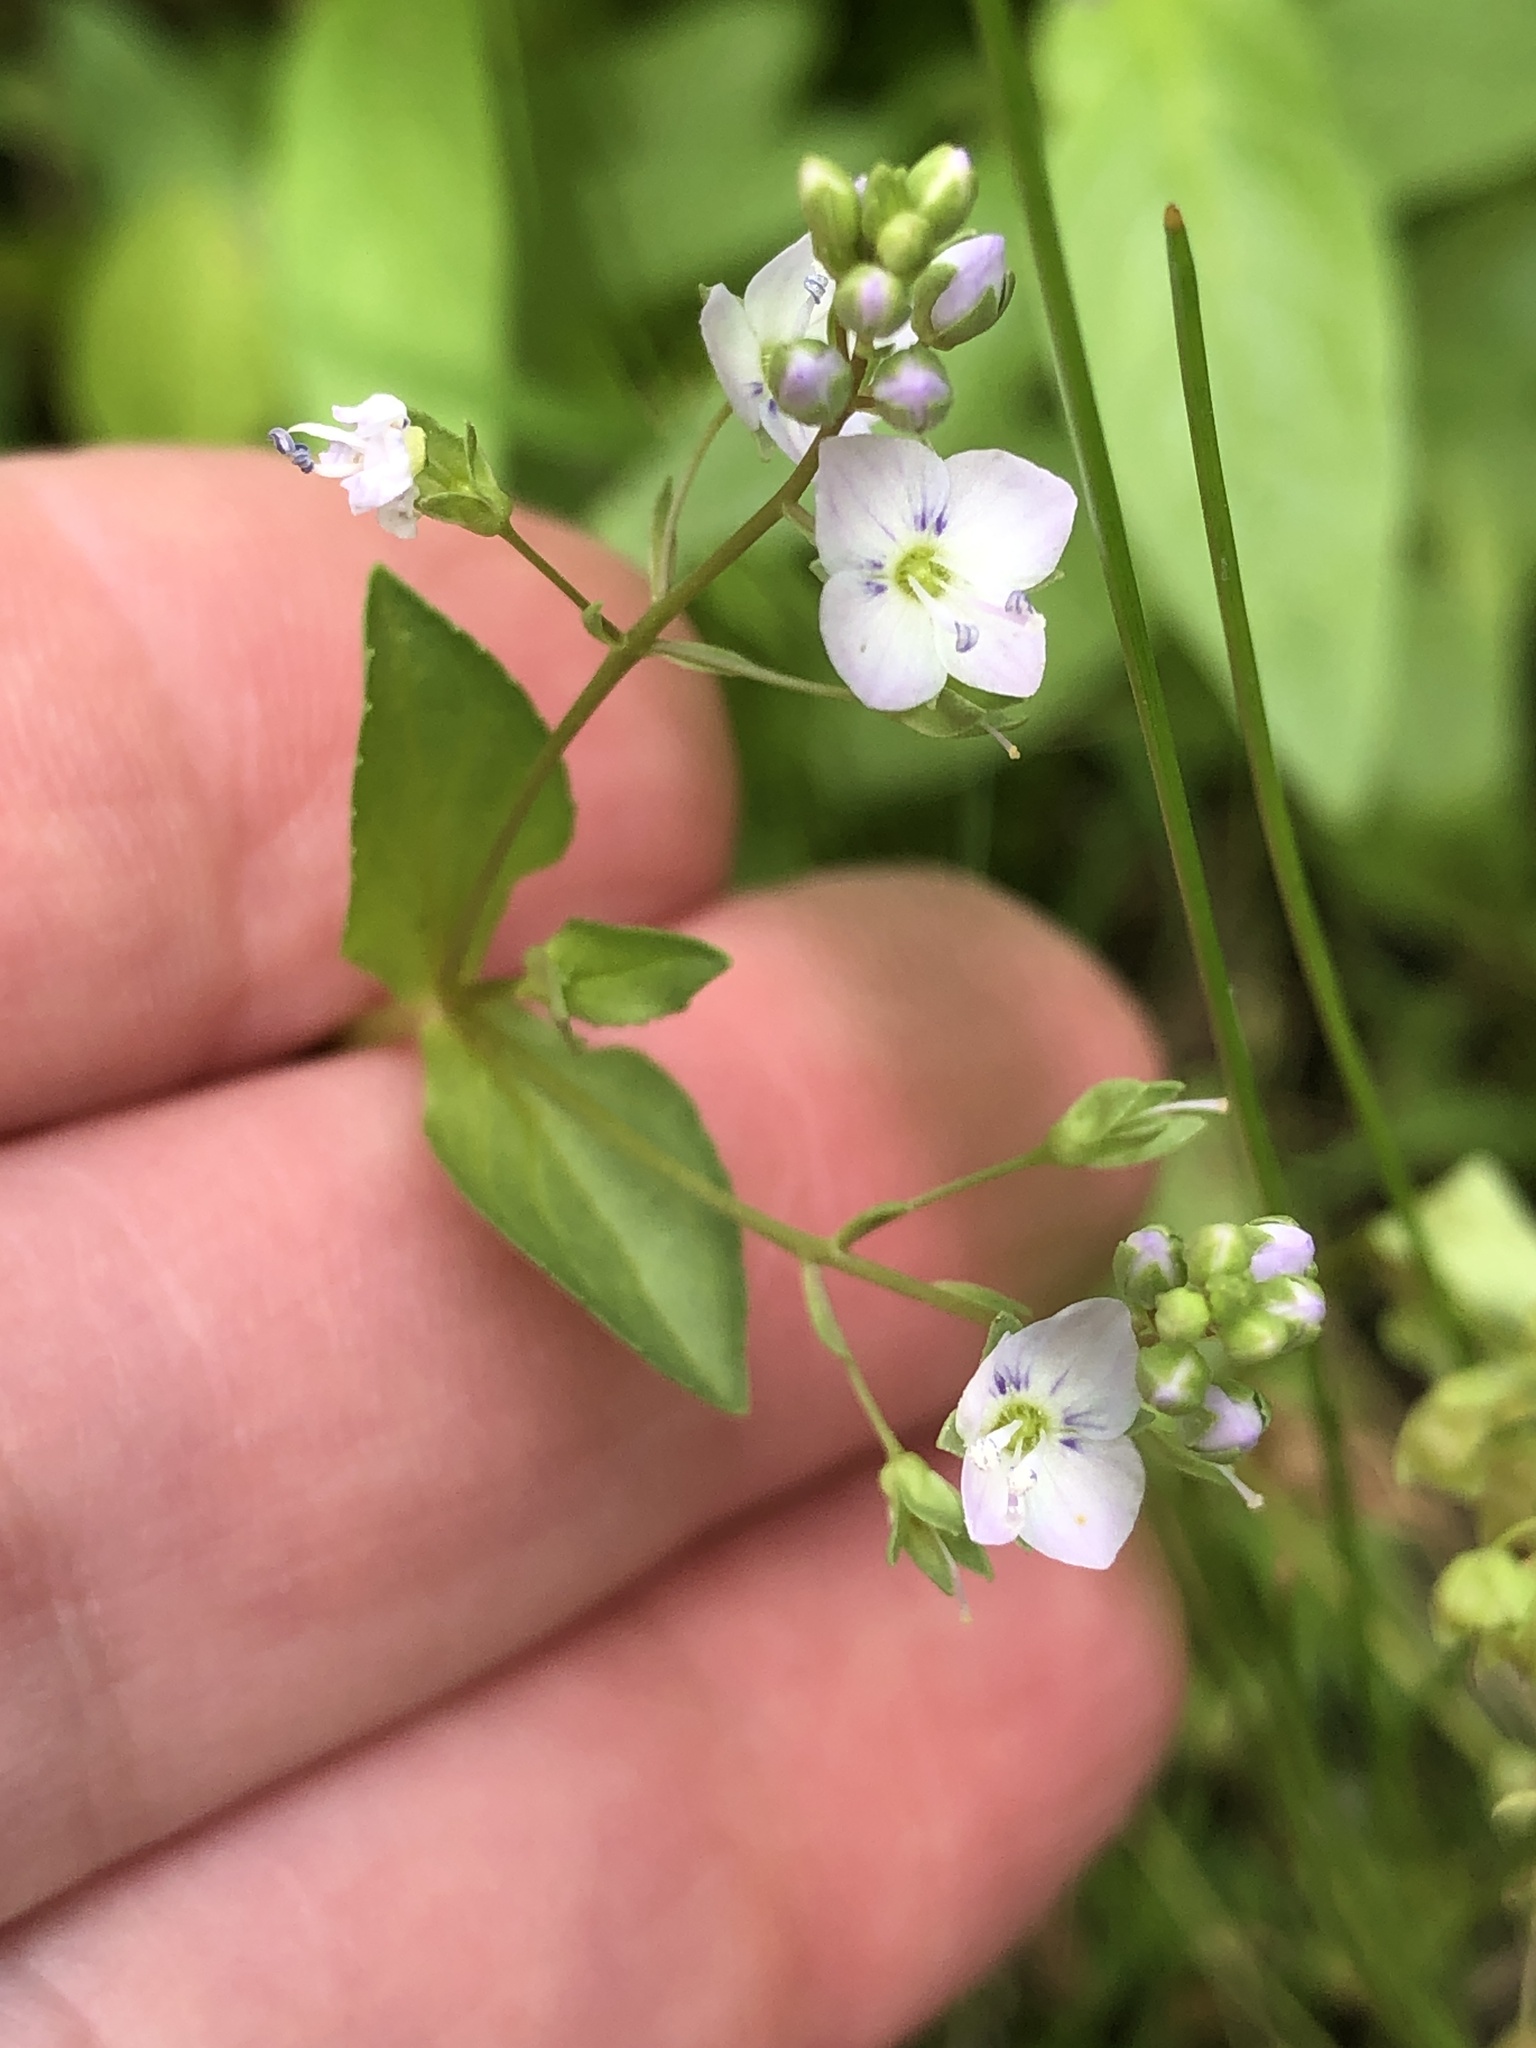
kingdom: Plantae
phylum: Tracheophyta
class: Magnoliopsida
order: Lamiales
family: Plantaginaceae
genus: Veronica
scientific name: Veronica anagallis-aquatica
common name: Water speedwell
